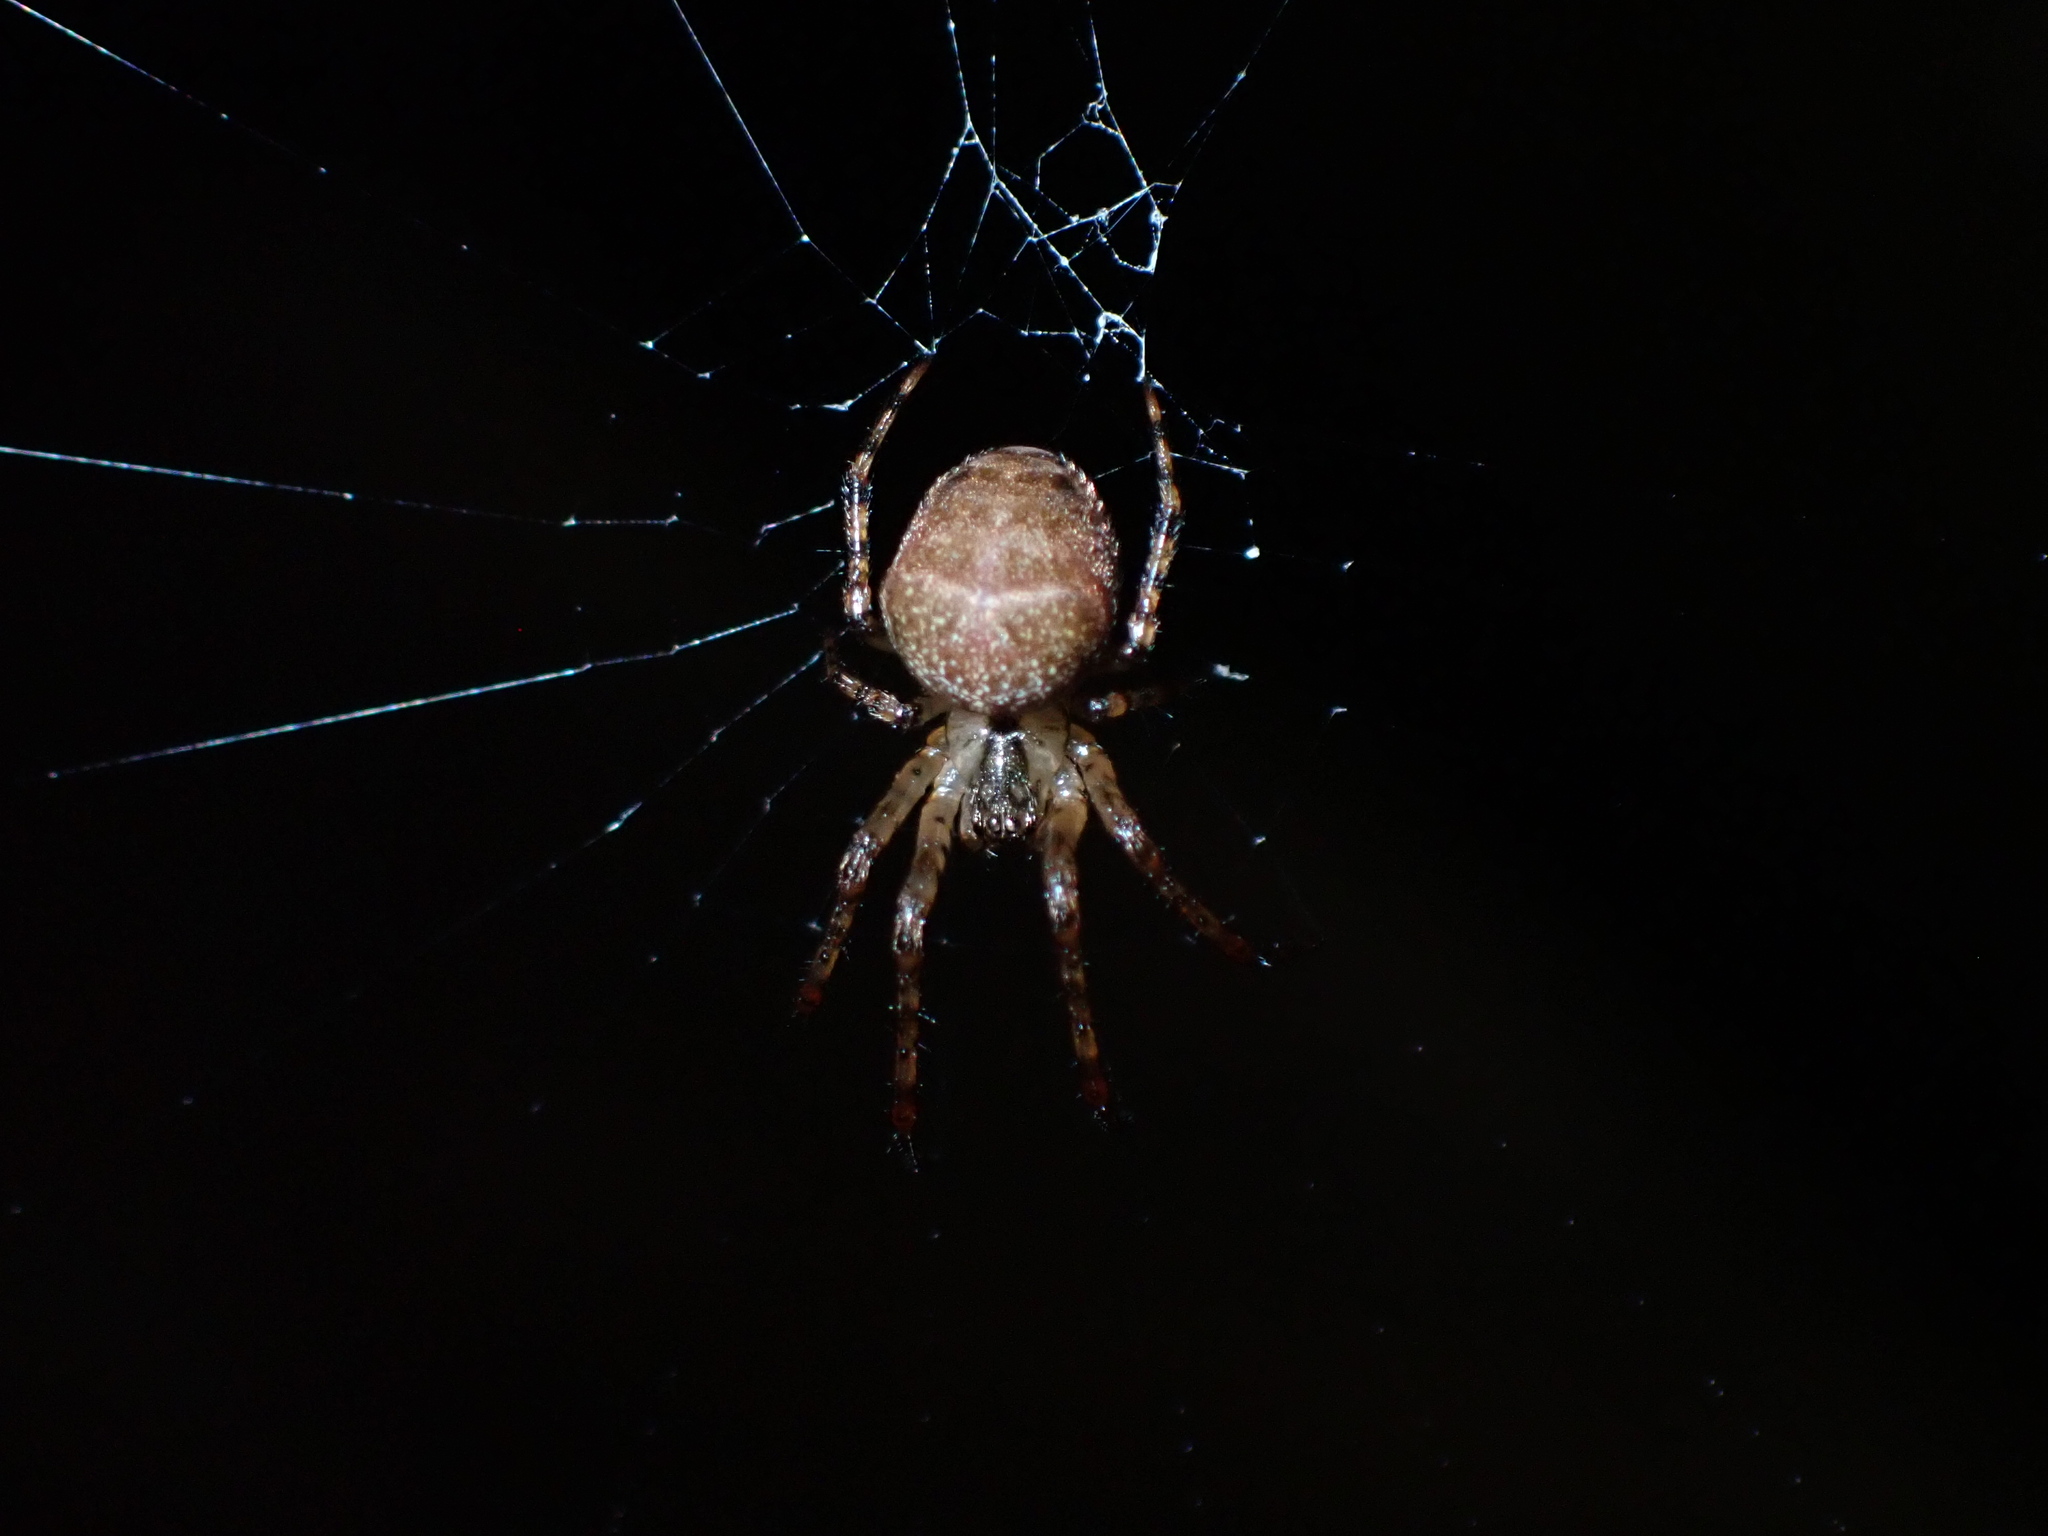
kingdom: Animalia
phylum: Arthropoda
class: Arachnida
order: Araneae
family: Tetragnathidae
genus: Metellina
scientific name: Metellina merianae
